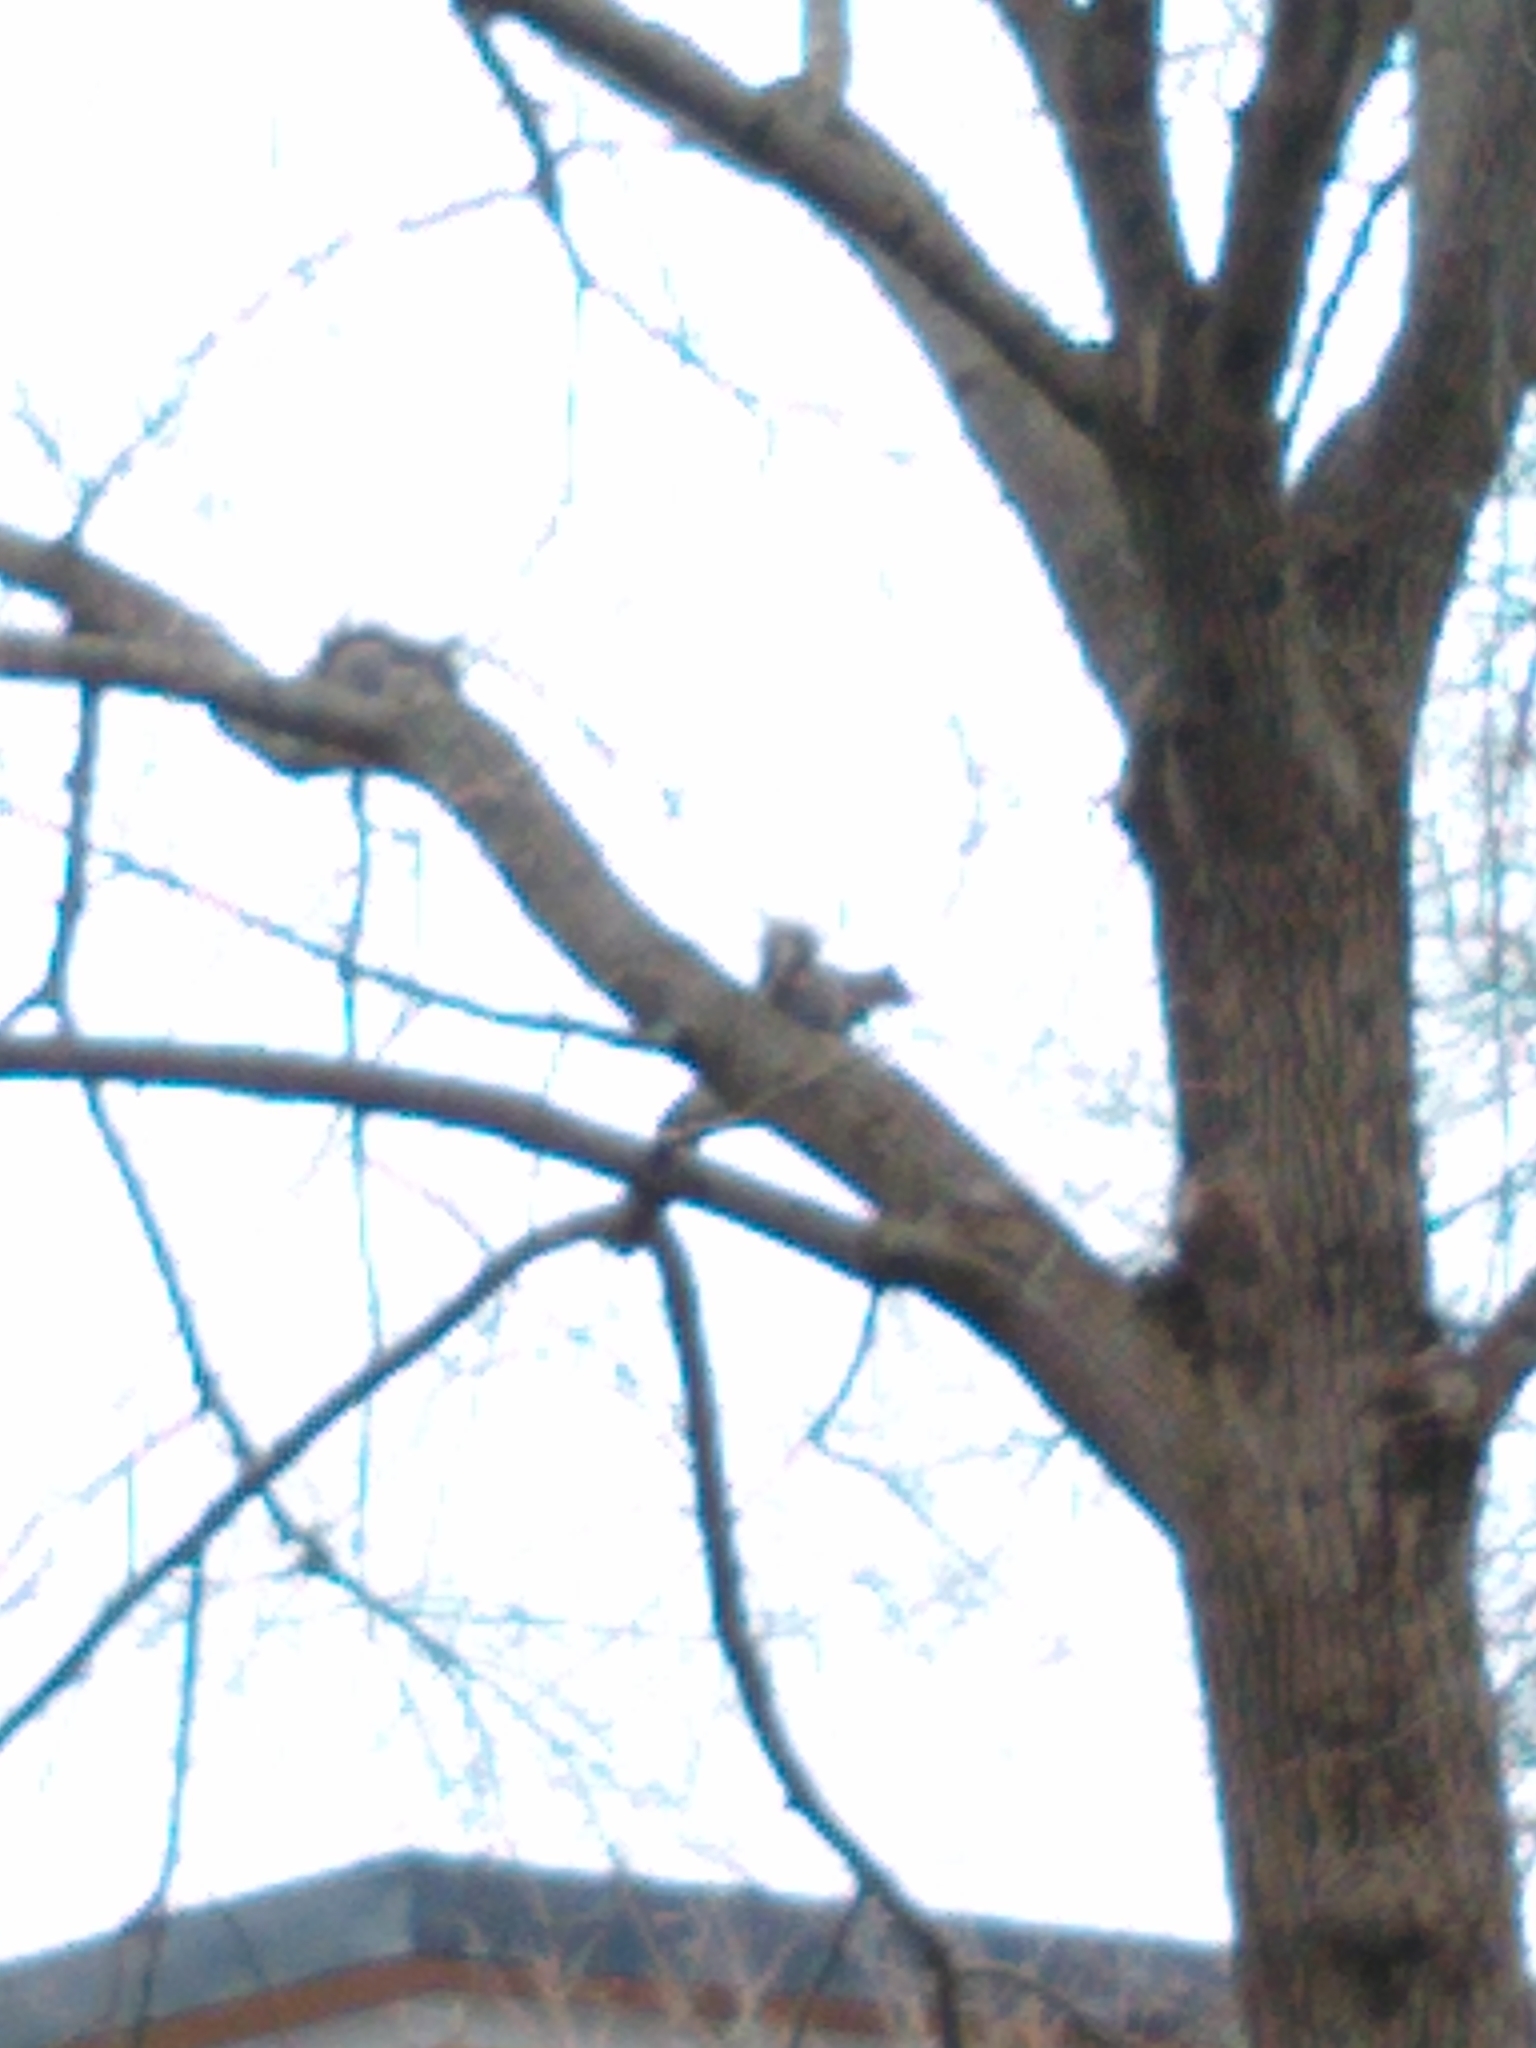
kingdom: Animalia
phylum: Chordata
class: Mammalia
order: Rodentia
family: Sciuridae
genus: Sciurus
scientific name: Sciurus carolinensis
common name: Eastern gray squirrel
